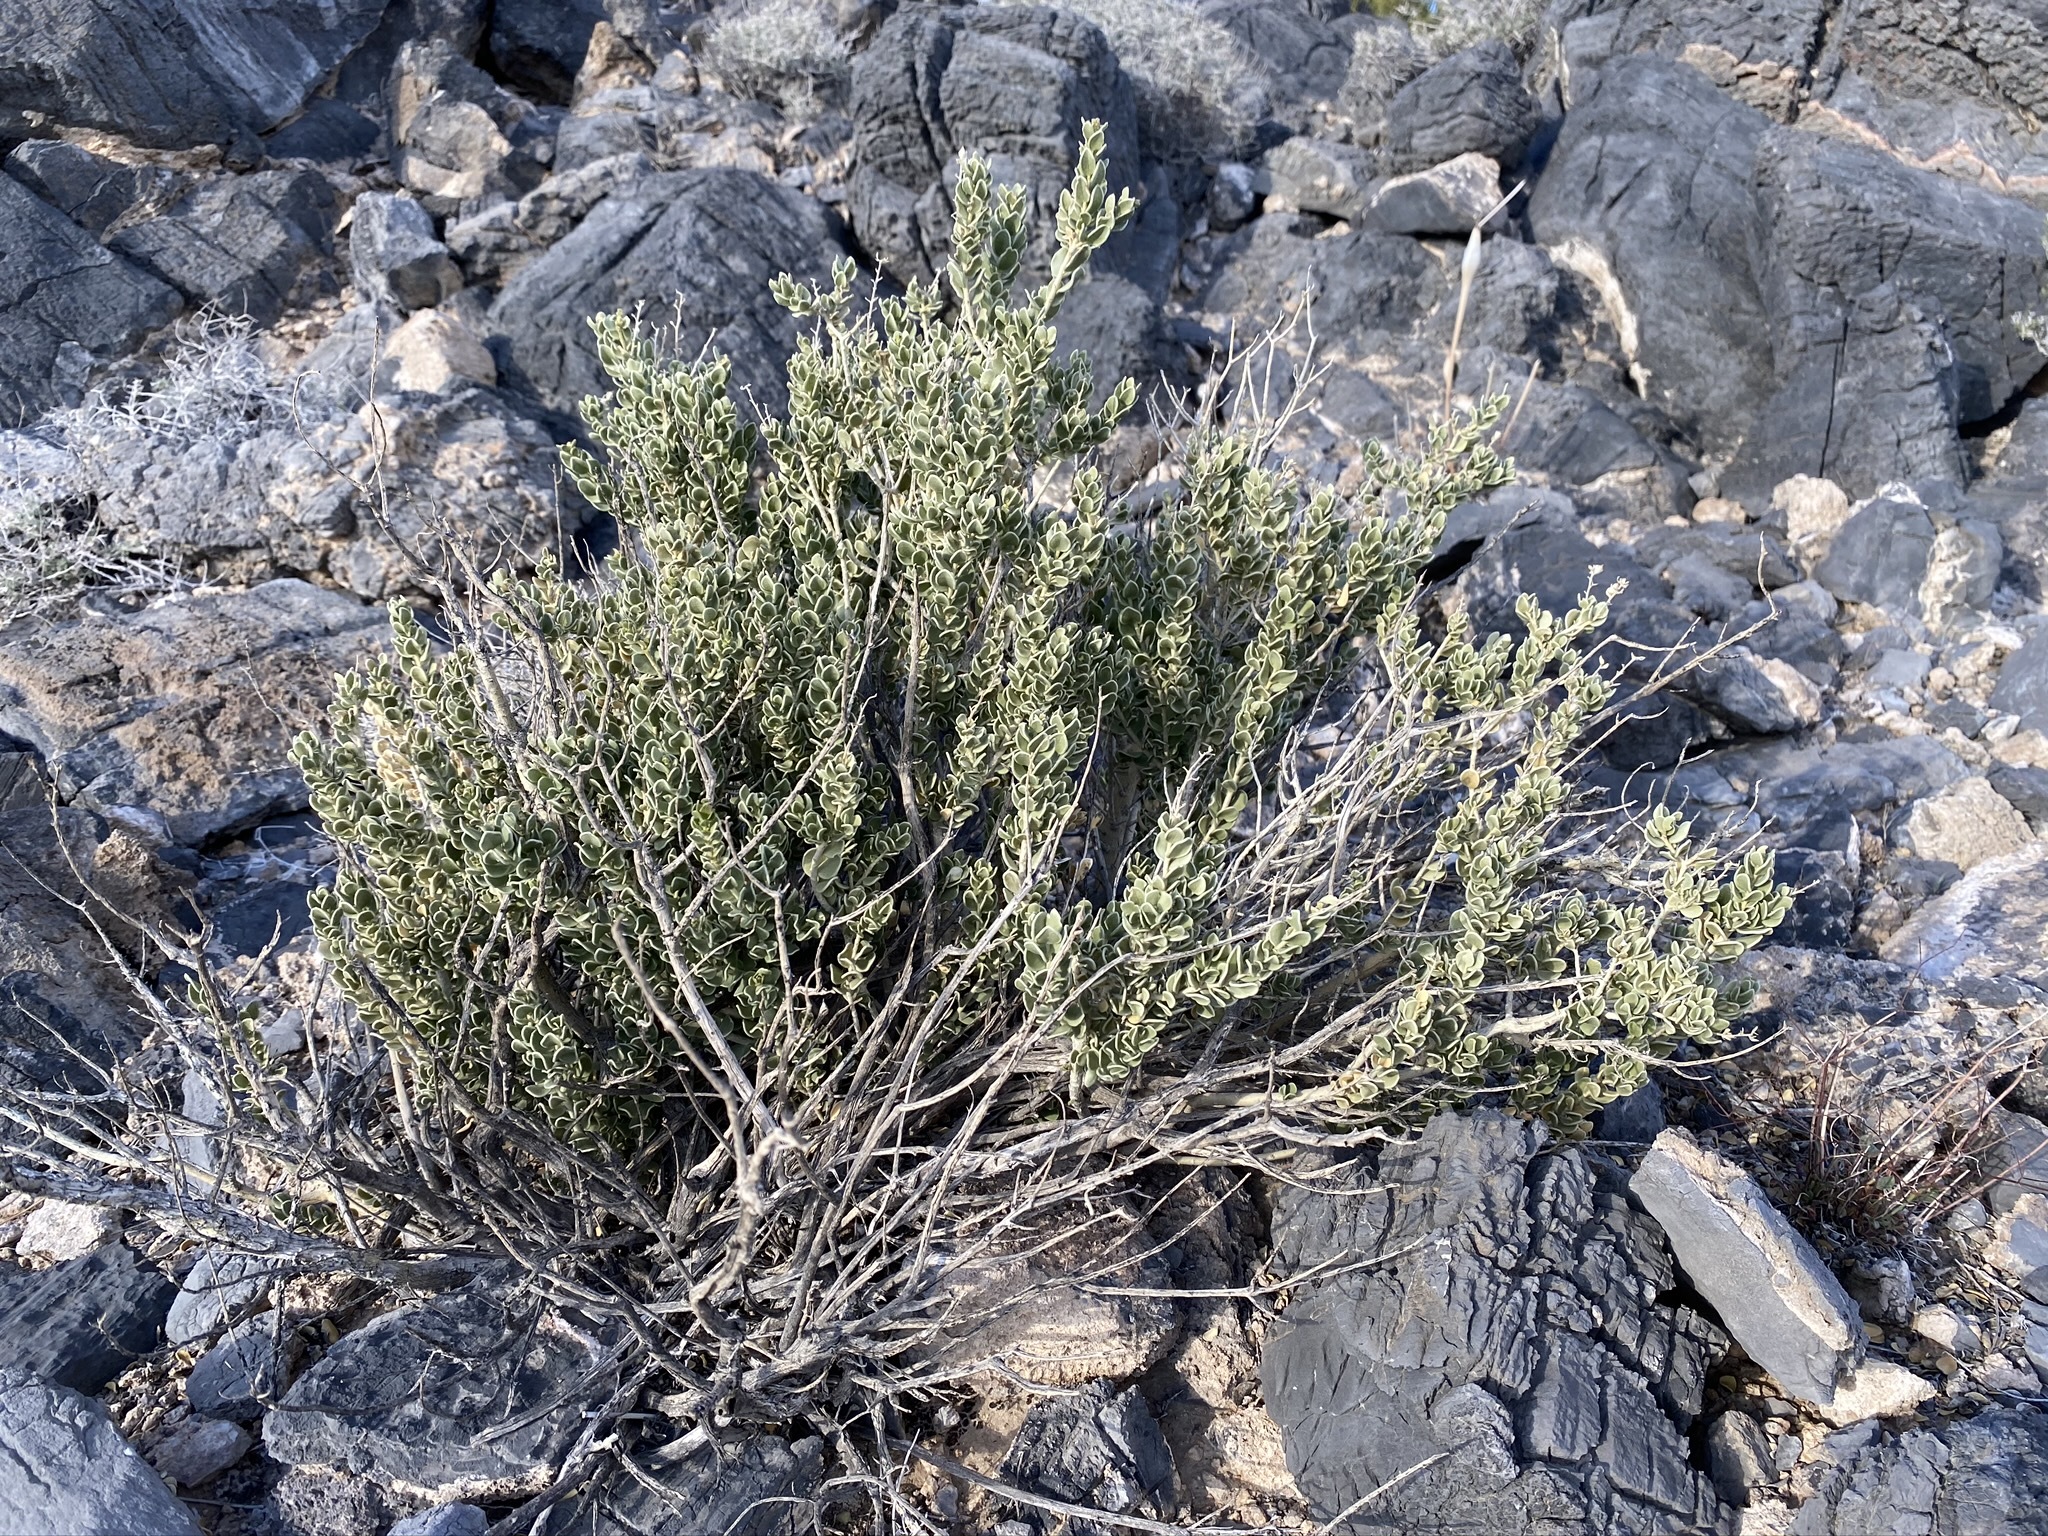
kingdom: Plantae
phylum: Tracheophyta
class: Magnoliopsida
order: Celastrales
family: Celastraceae
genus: Mortonia
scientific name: Mortonia utahensis
